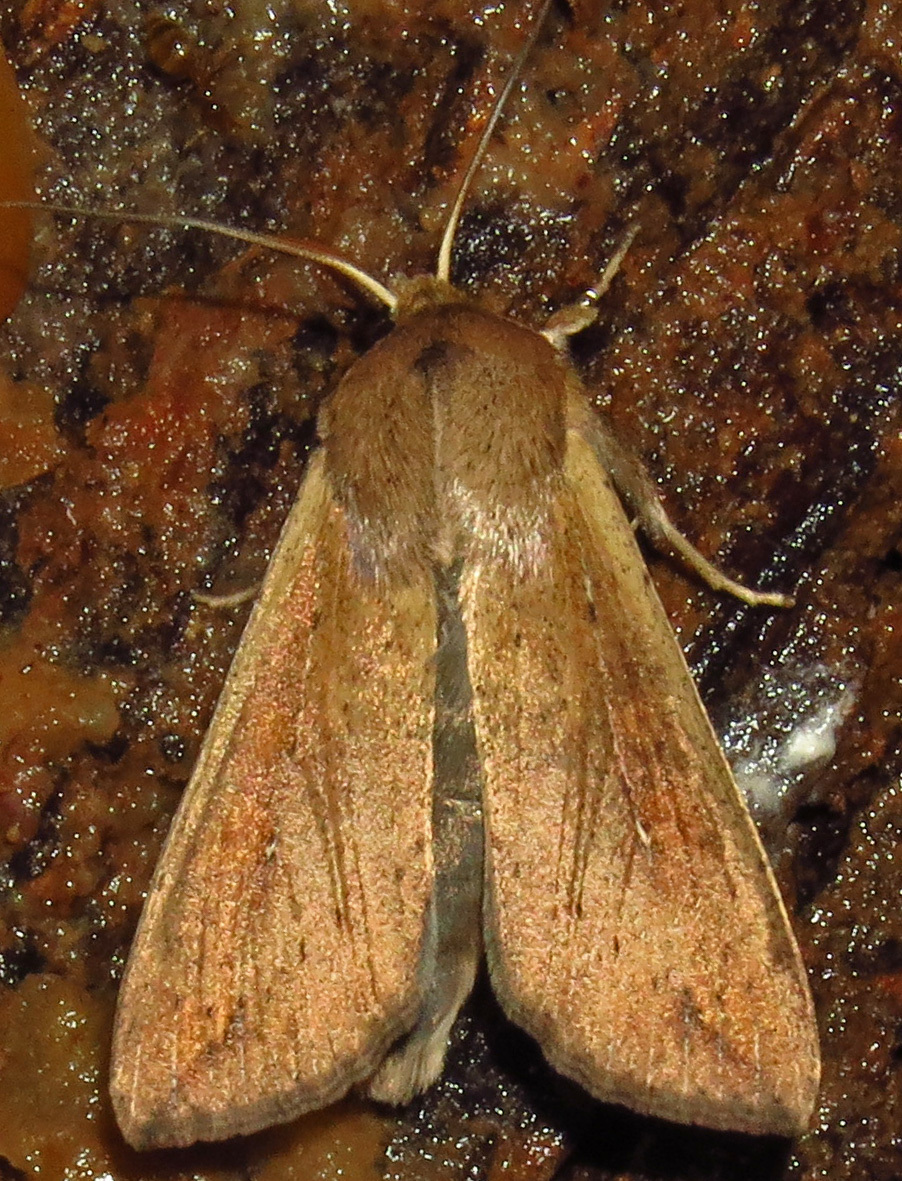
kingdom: Animalia
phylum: Arthropoda
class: Insecta
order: Lepidoptera
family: Noctuidae
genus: Mythimna
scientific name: Mythimna unipuncta
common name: White-speck
